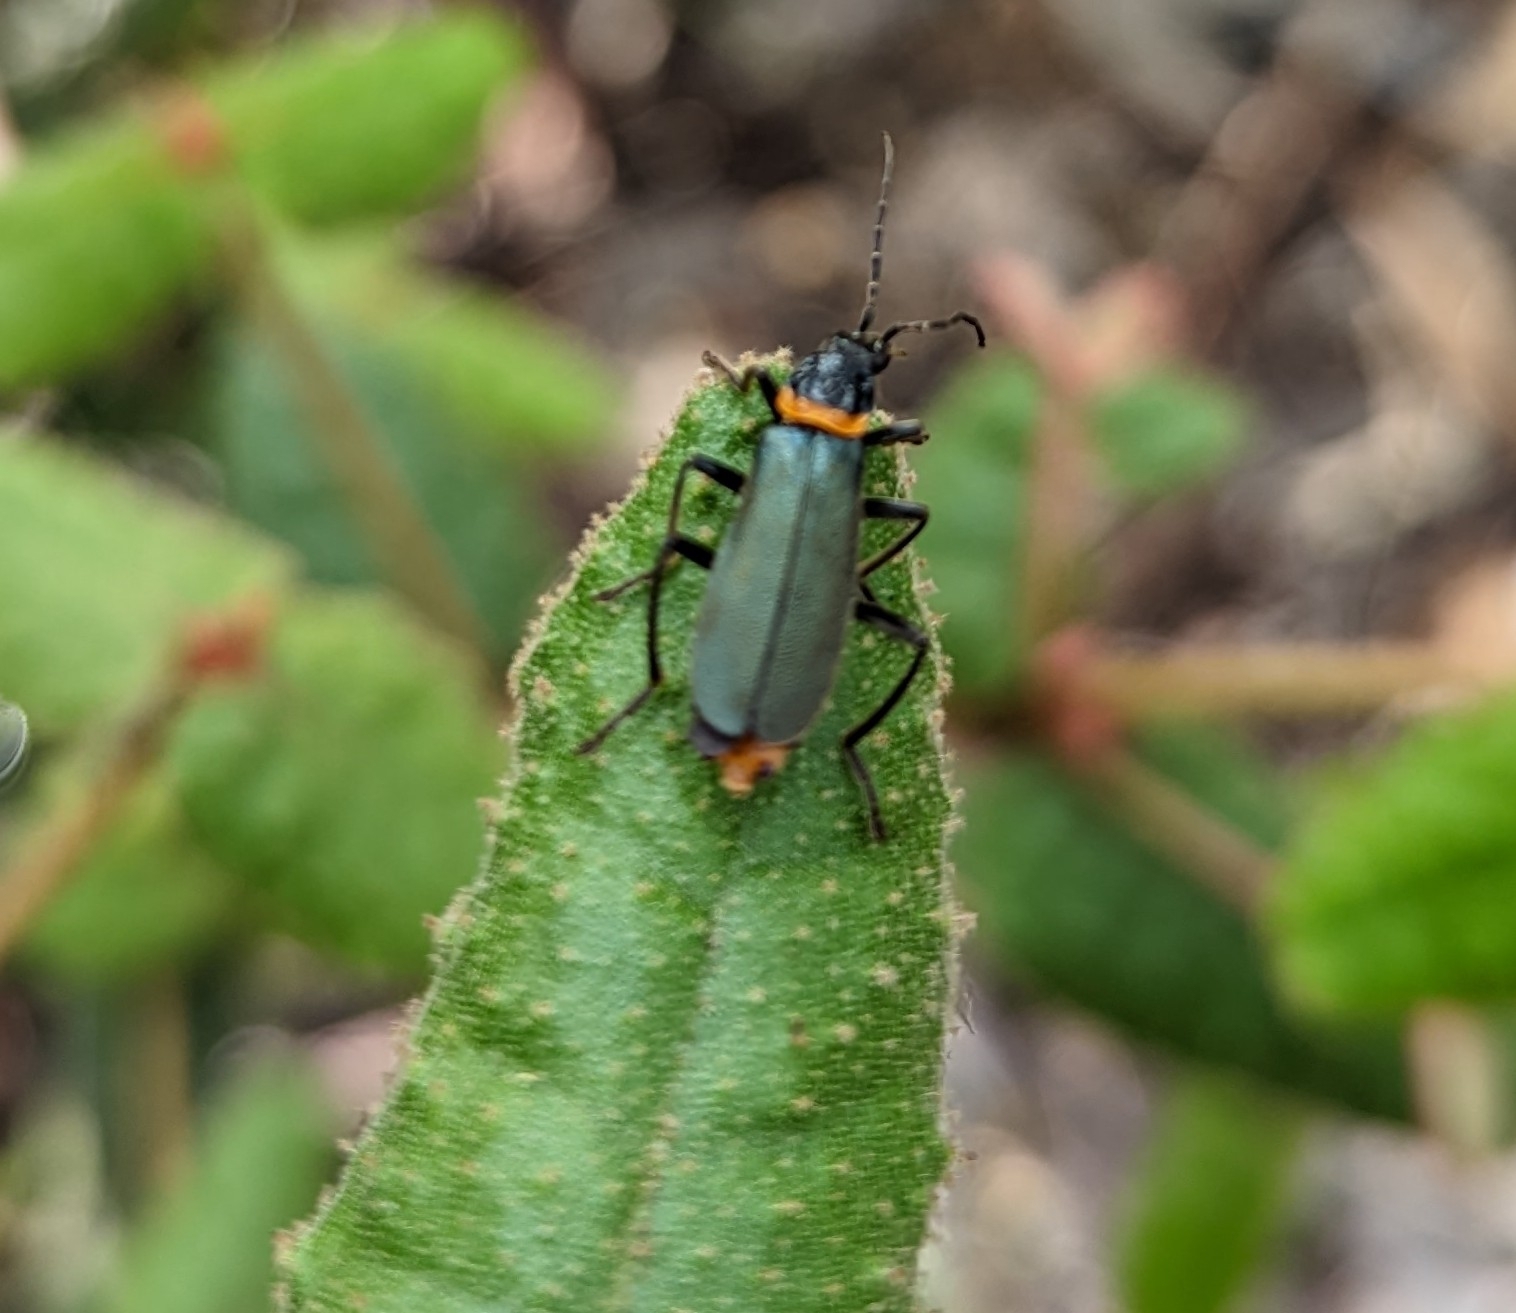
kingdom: Animalia
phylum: Arthropoda
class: Insecta
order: Coleoptera
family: Cantharidae
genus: Chauliognathus
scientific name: Chauliognathus
